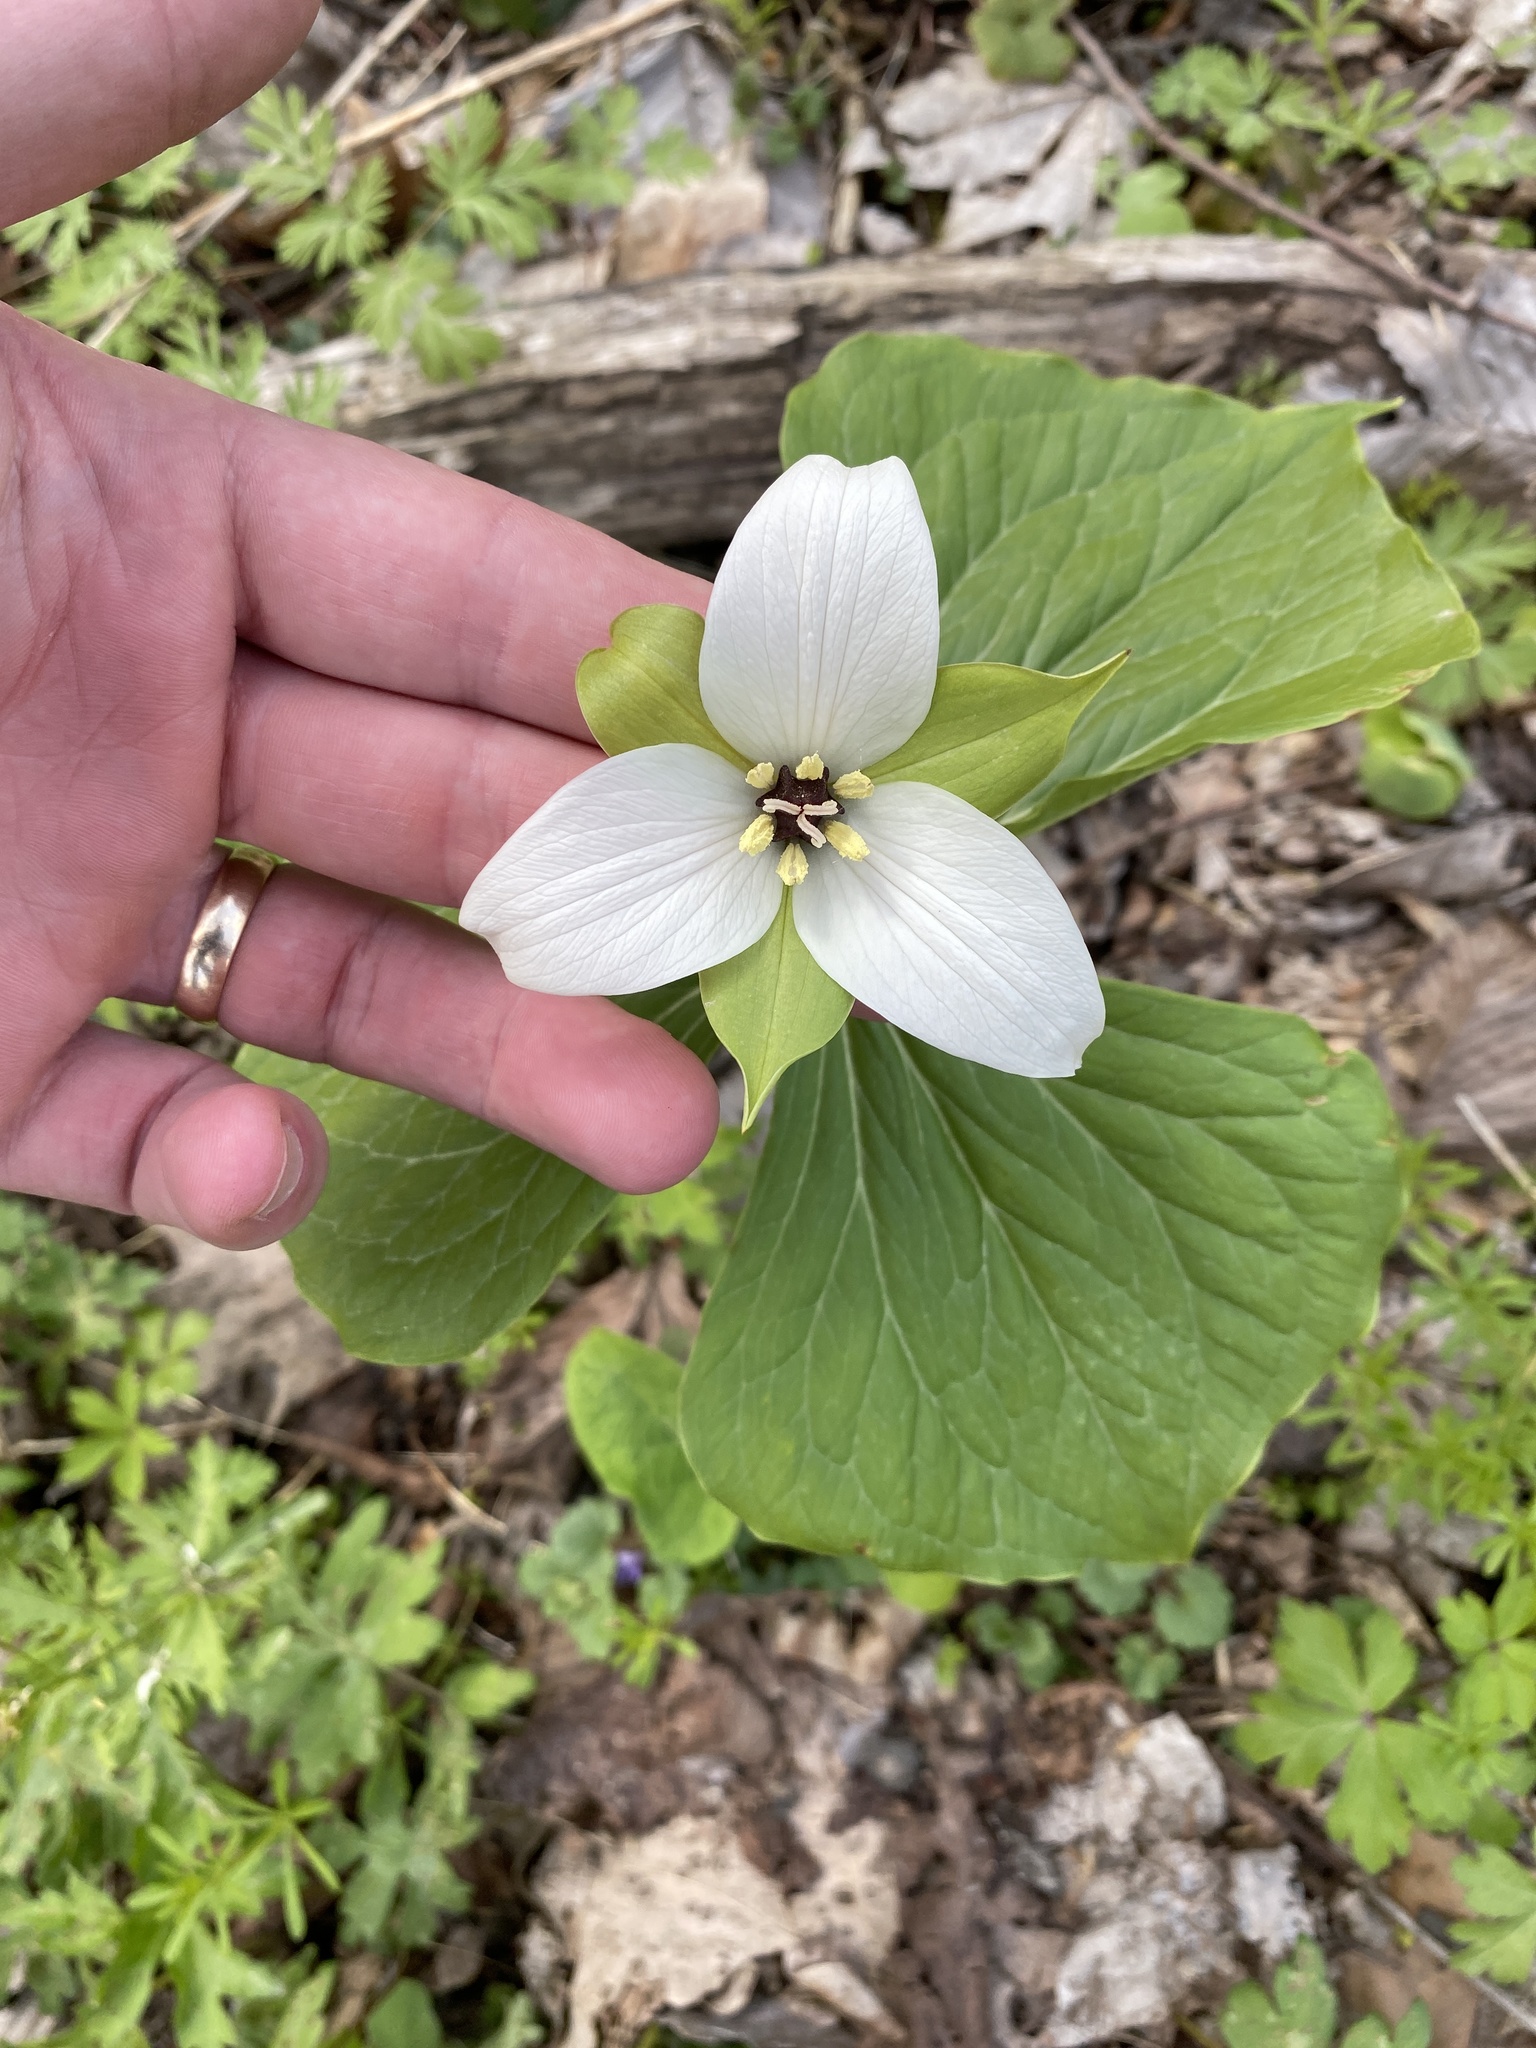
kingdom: Plantae
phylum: Tracheophyta
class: Liliopsida
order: Liliales
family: Melanthiaceae
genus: Trillium
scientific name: Trillium erectum
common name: Purple trillium
